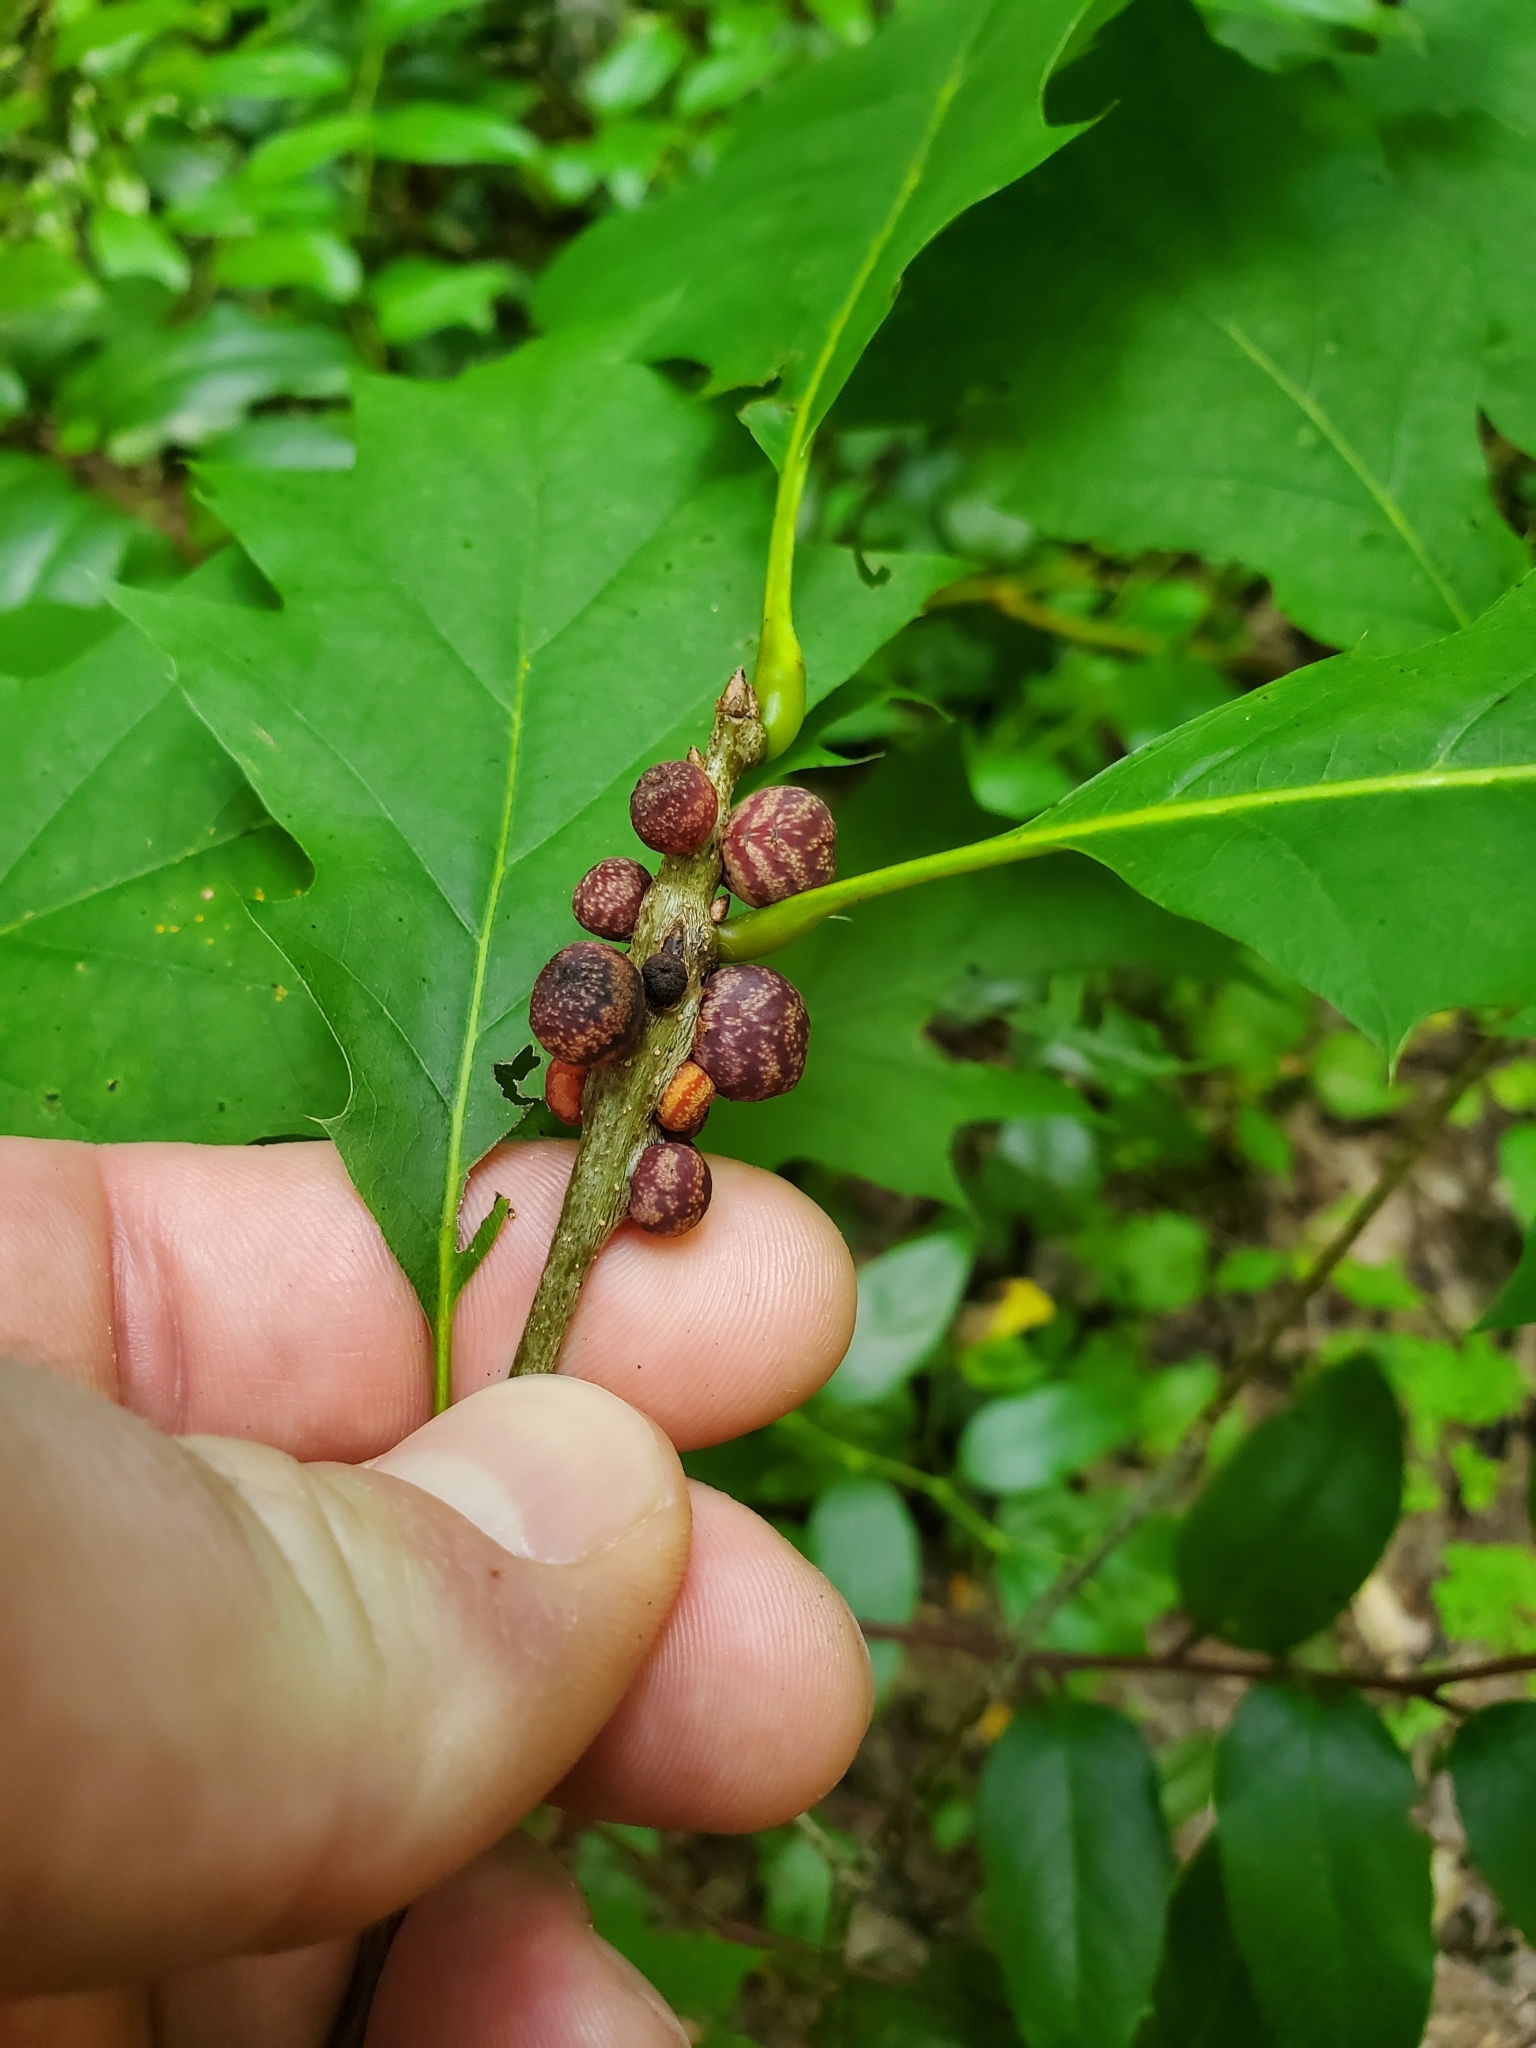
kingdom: Animalia
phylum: Arthropoda
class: Insecta
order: Hymenoptera
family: Cynipidae
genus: Kokkocynips
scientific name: Kokkocynips imbricariae
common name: Banded bullet gall wasp
